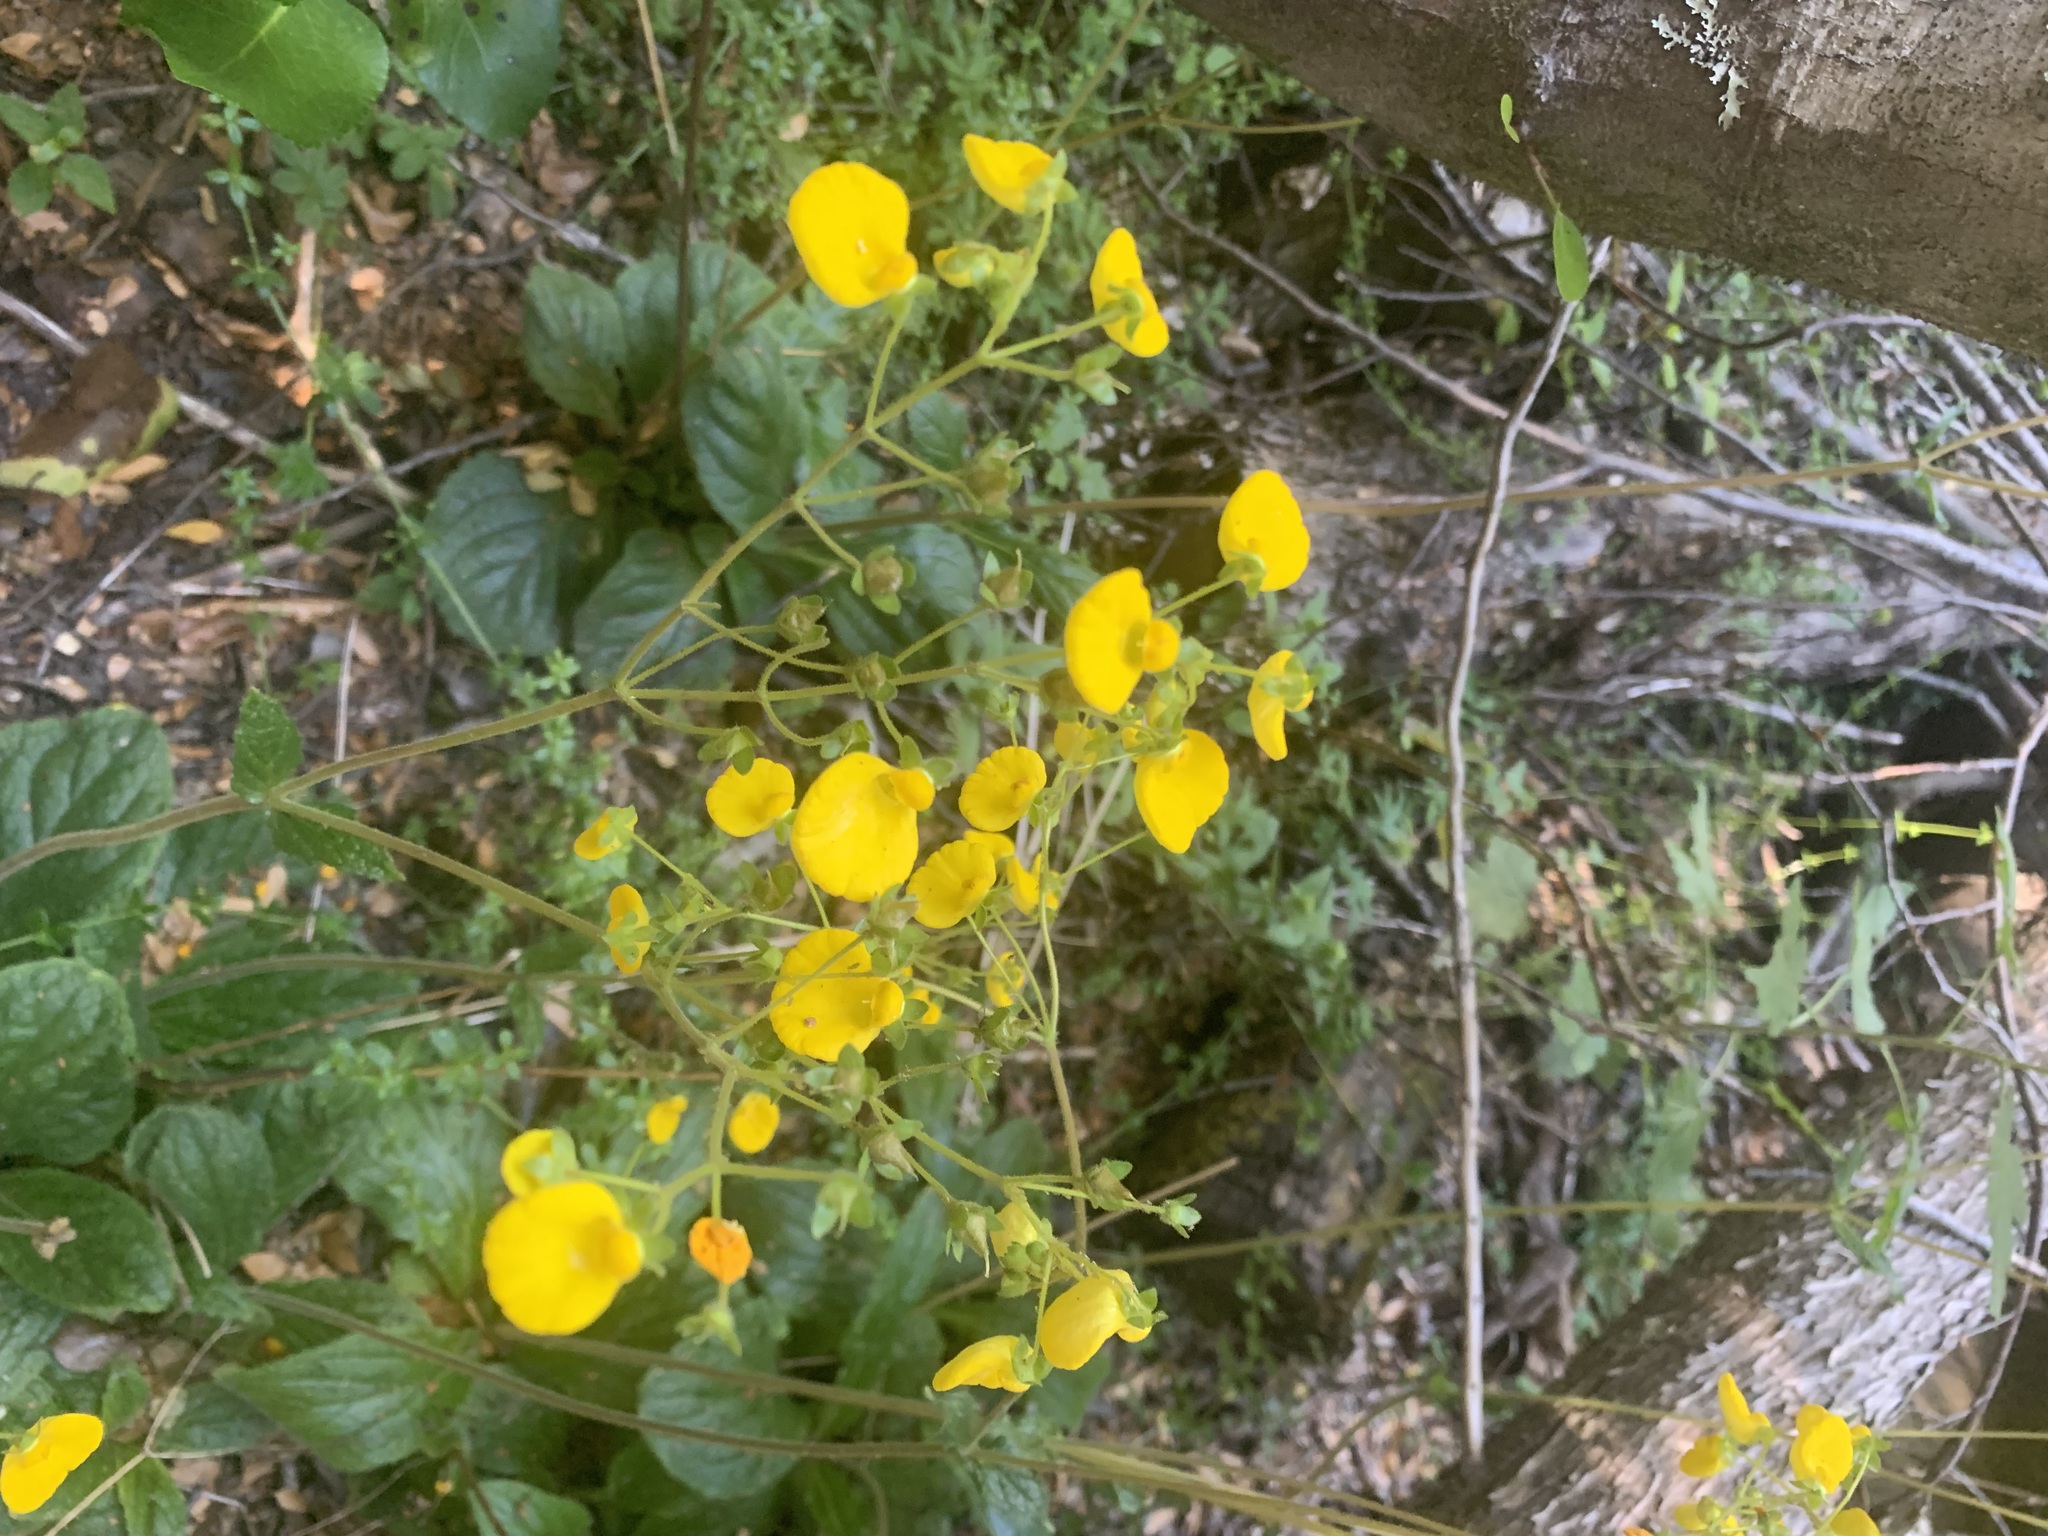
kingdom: Plantae
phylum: Tracheophyta
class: Magnoliopsida
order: Lamiales
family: Calceolariaceae
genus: Calceolaria
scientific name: Calceolaria valdiviana
